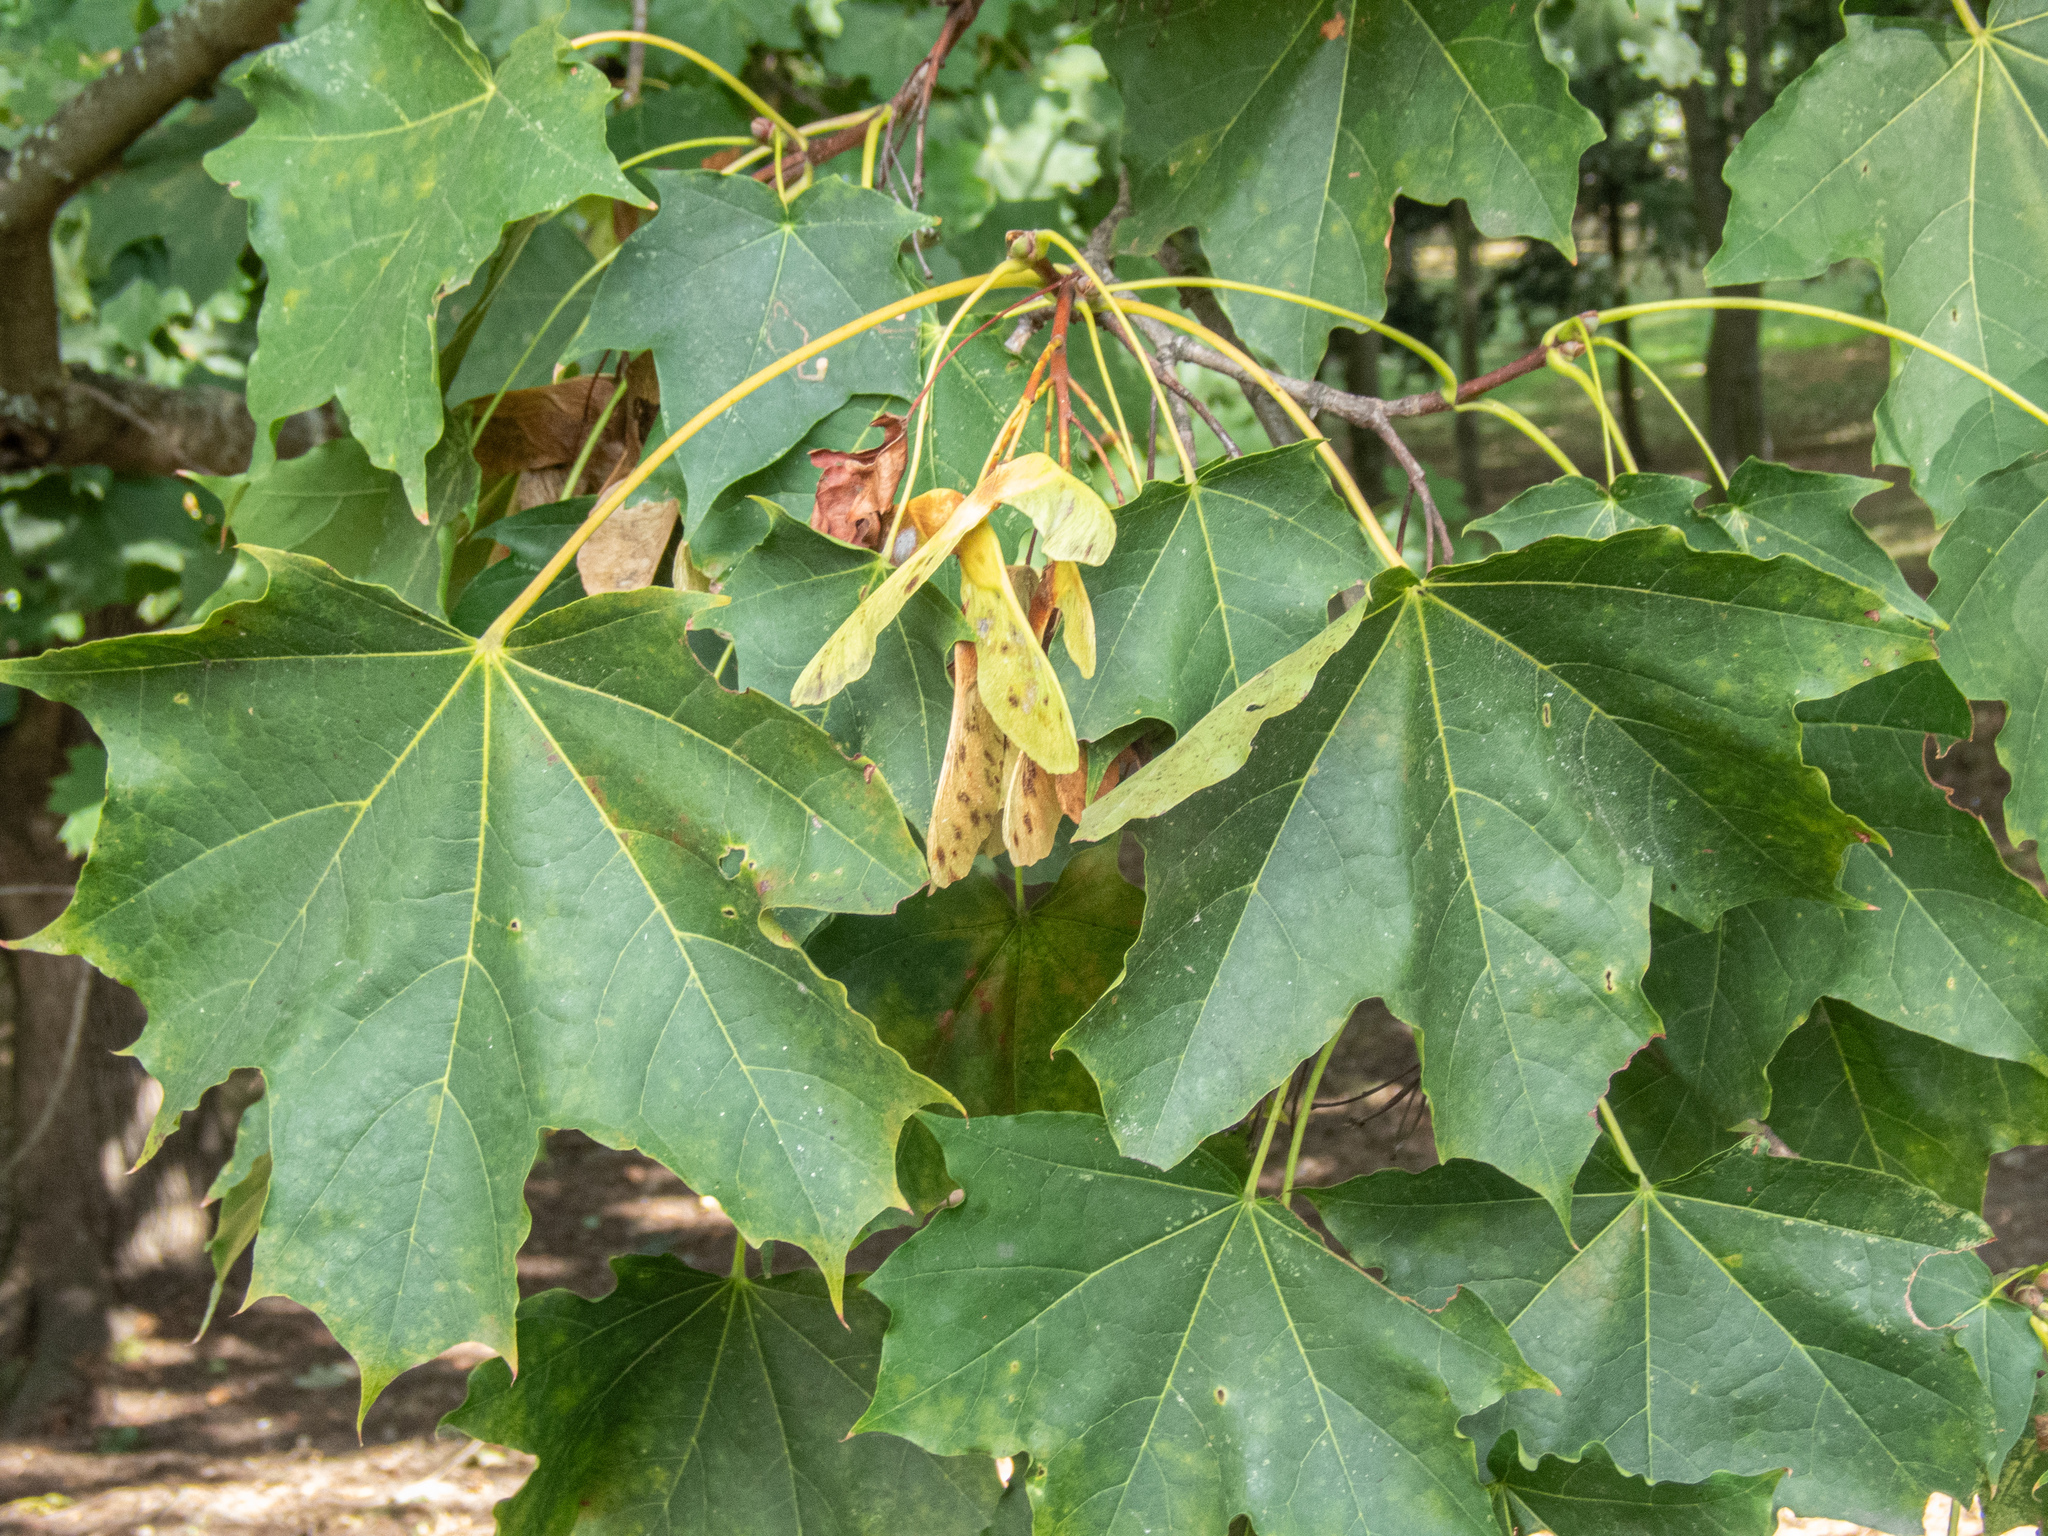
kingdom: Plantae
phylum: Tracheophyta
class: Magnoliopsida
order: Sapindales
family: Sapindaceae
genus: Acer
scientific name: Acer platanoides
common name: Norway maple
